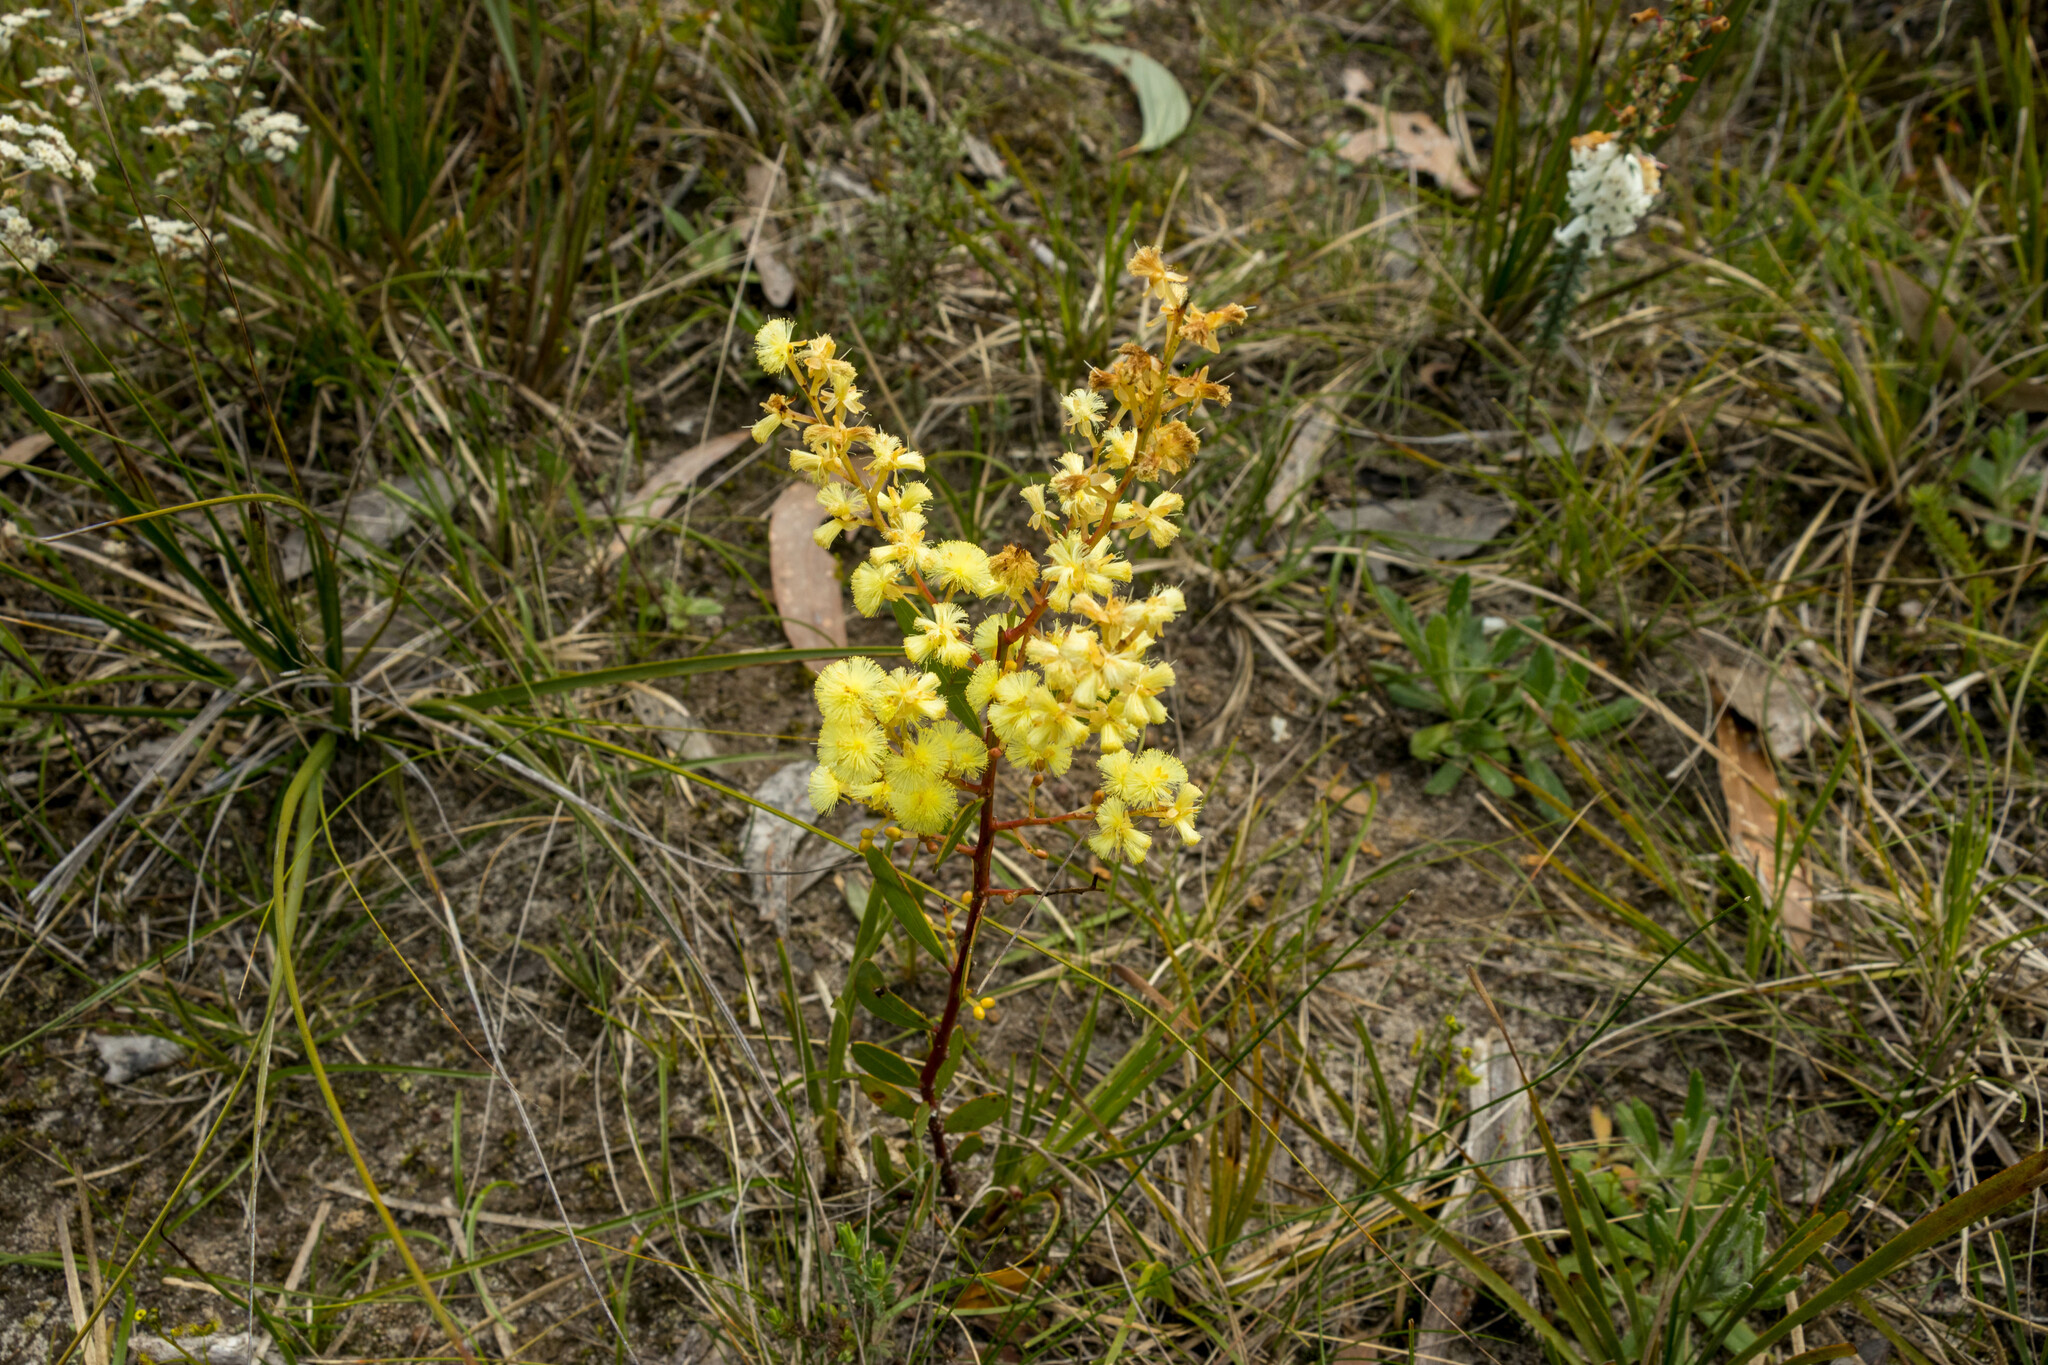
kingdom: Plantae
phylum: Tracheophyta
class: Magnoliopsida
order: Fabales
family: Fabaceae
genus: Acacia
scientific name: Acacia myrtifolia
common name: Myrtle wattle
